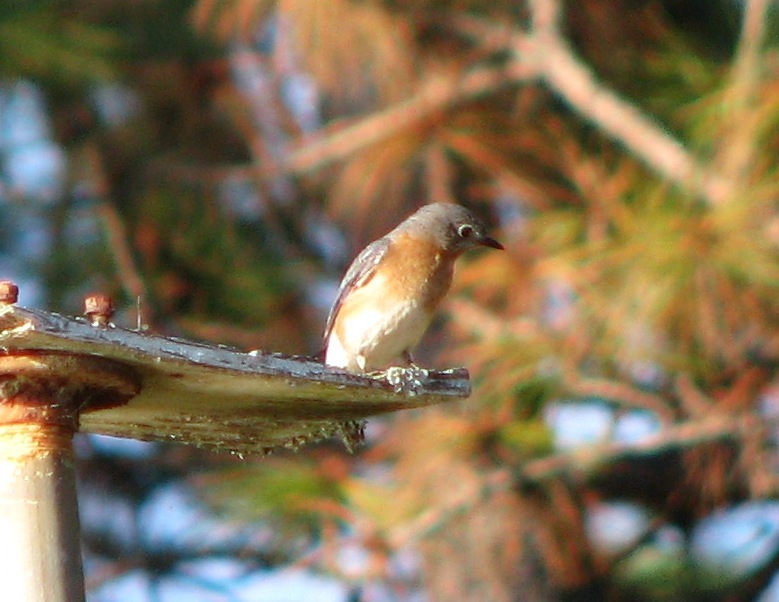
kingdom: Animalia
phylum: Chordata
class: Aves
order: Passeriformes
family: Turdidae
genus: Sialia
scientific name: Sialia sialis
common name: Eastern bluebird
